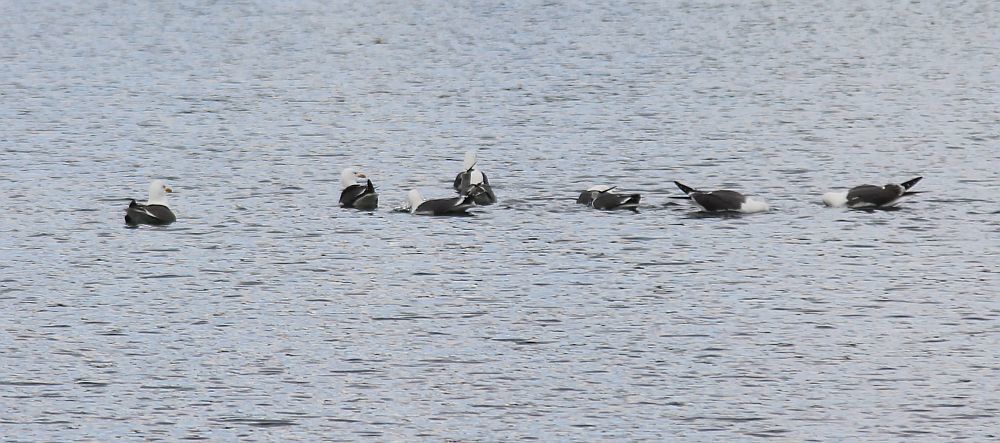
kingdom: Animalia
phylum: Chordata
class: Aves
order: Charadriiformes
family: Laridae
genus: Larus
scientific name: Larus fuscus
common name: Lesser black-backed gull
